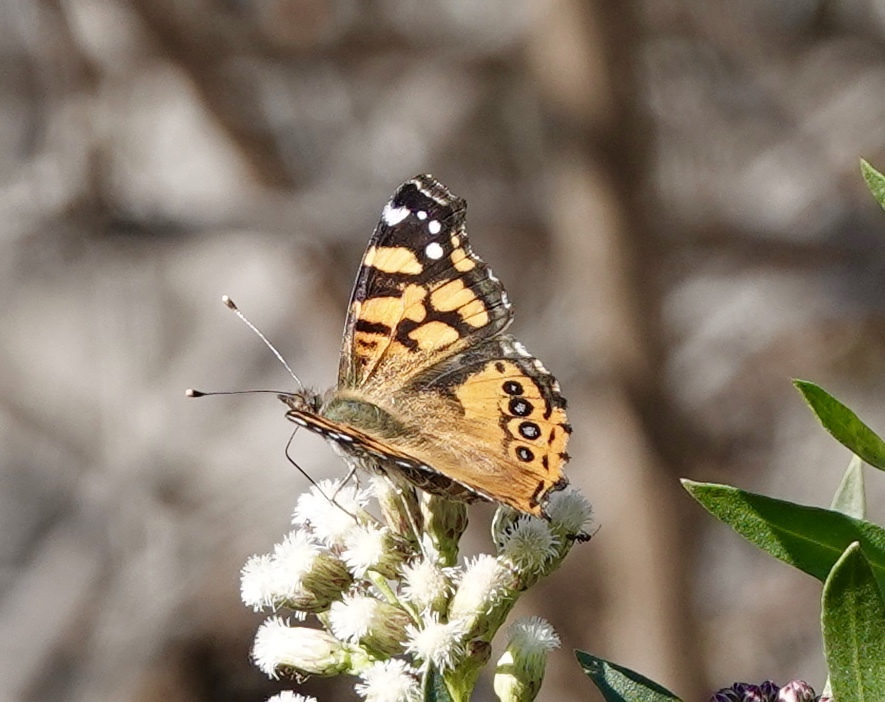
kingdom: Animalia
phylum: Arthropoda
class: Insecta
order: Lepidoptera
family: Nymphalidae
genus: Vanessa
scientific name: Vanessa annabella
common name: West coast lady
